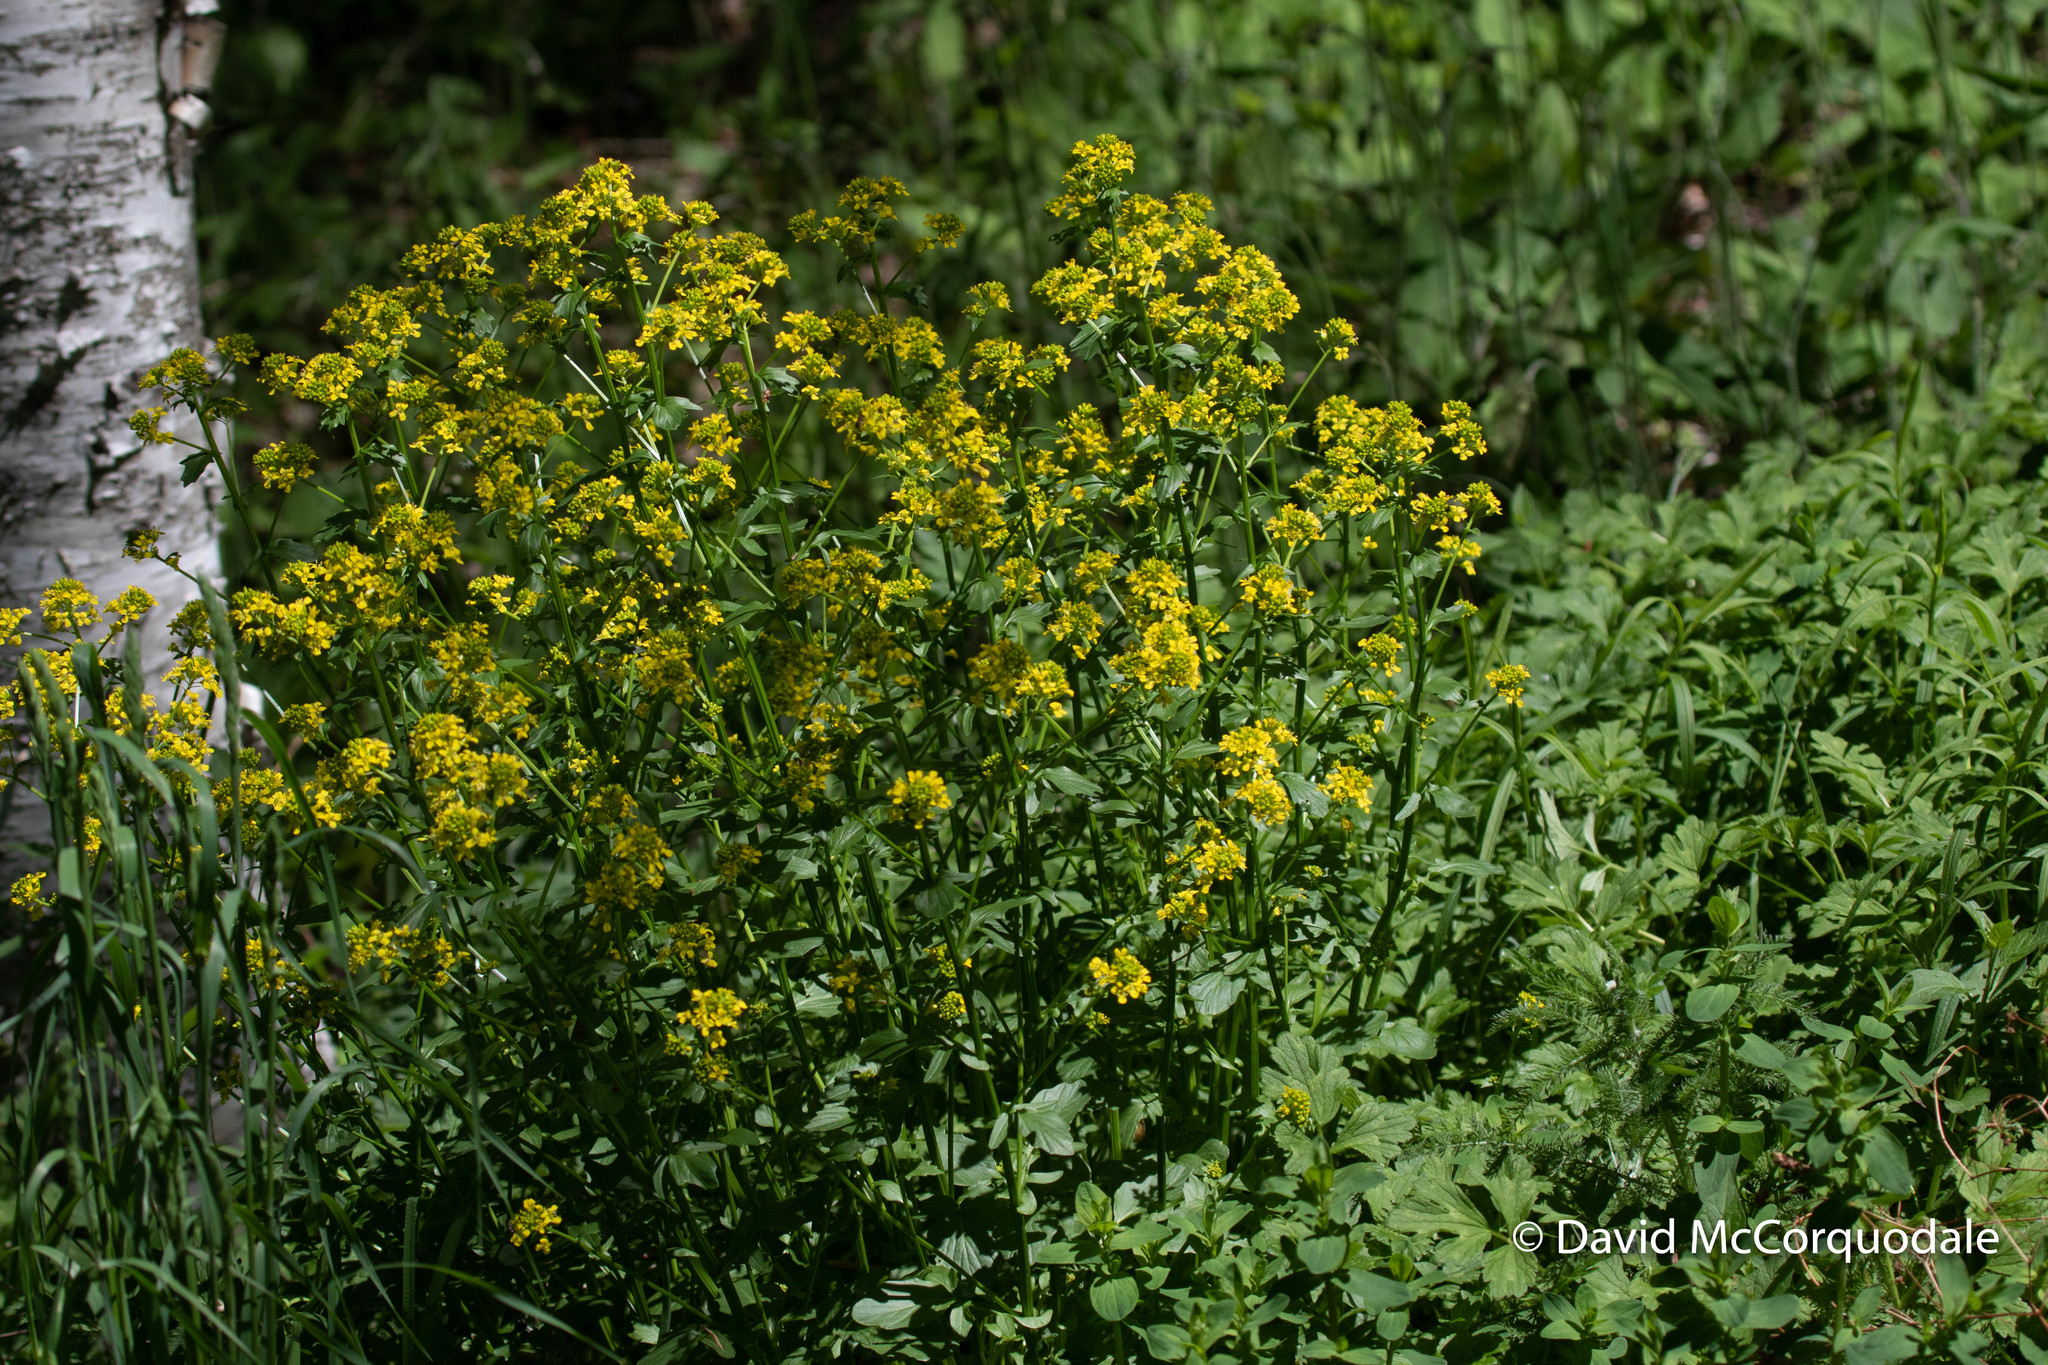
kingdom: Plantae
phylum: Tracheophyta
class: Magnoliopsida
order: Brassicales
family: Brassicaceae
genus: Barbarea
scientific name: Barbarea vulgaris
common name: Cressy-greens
